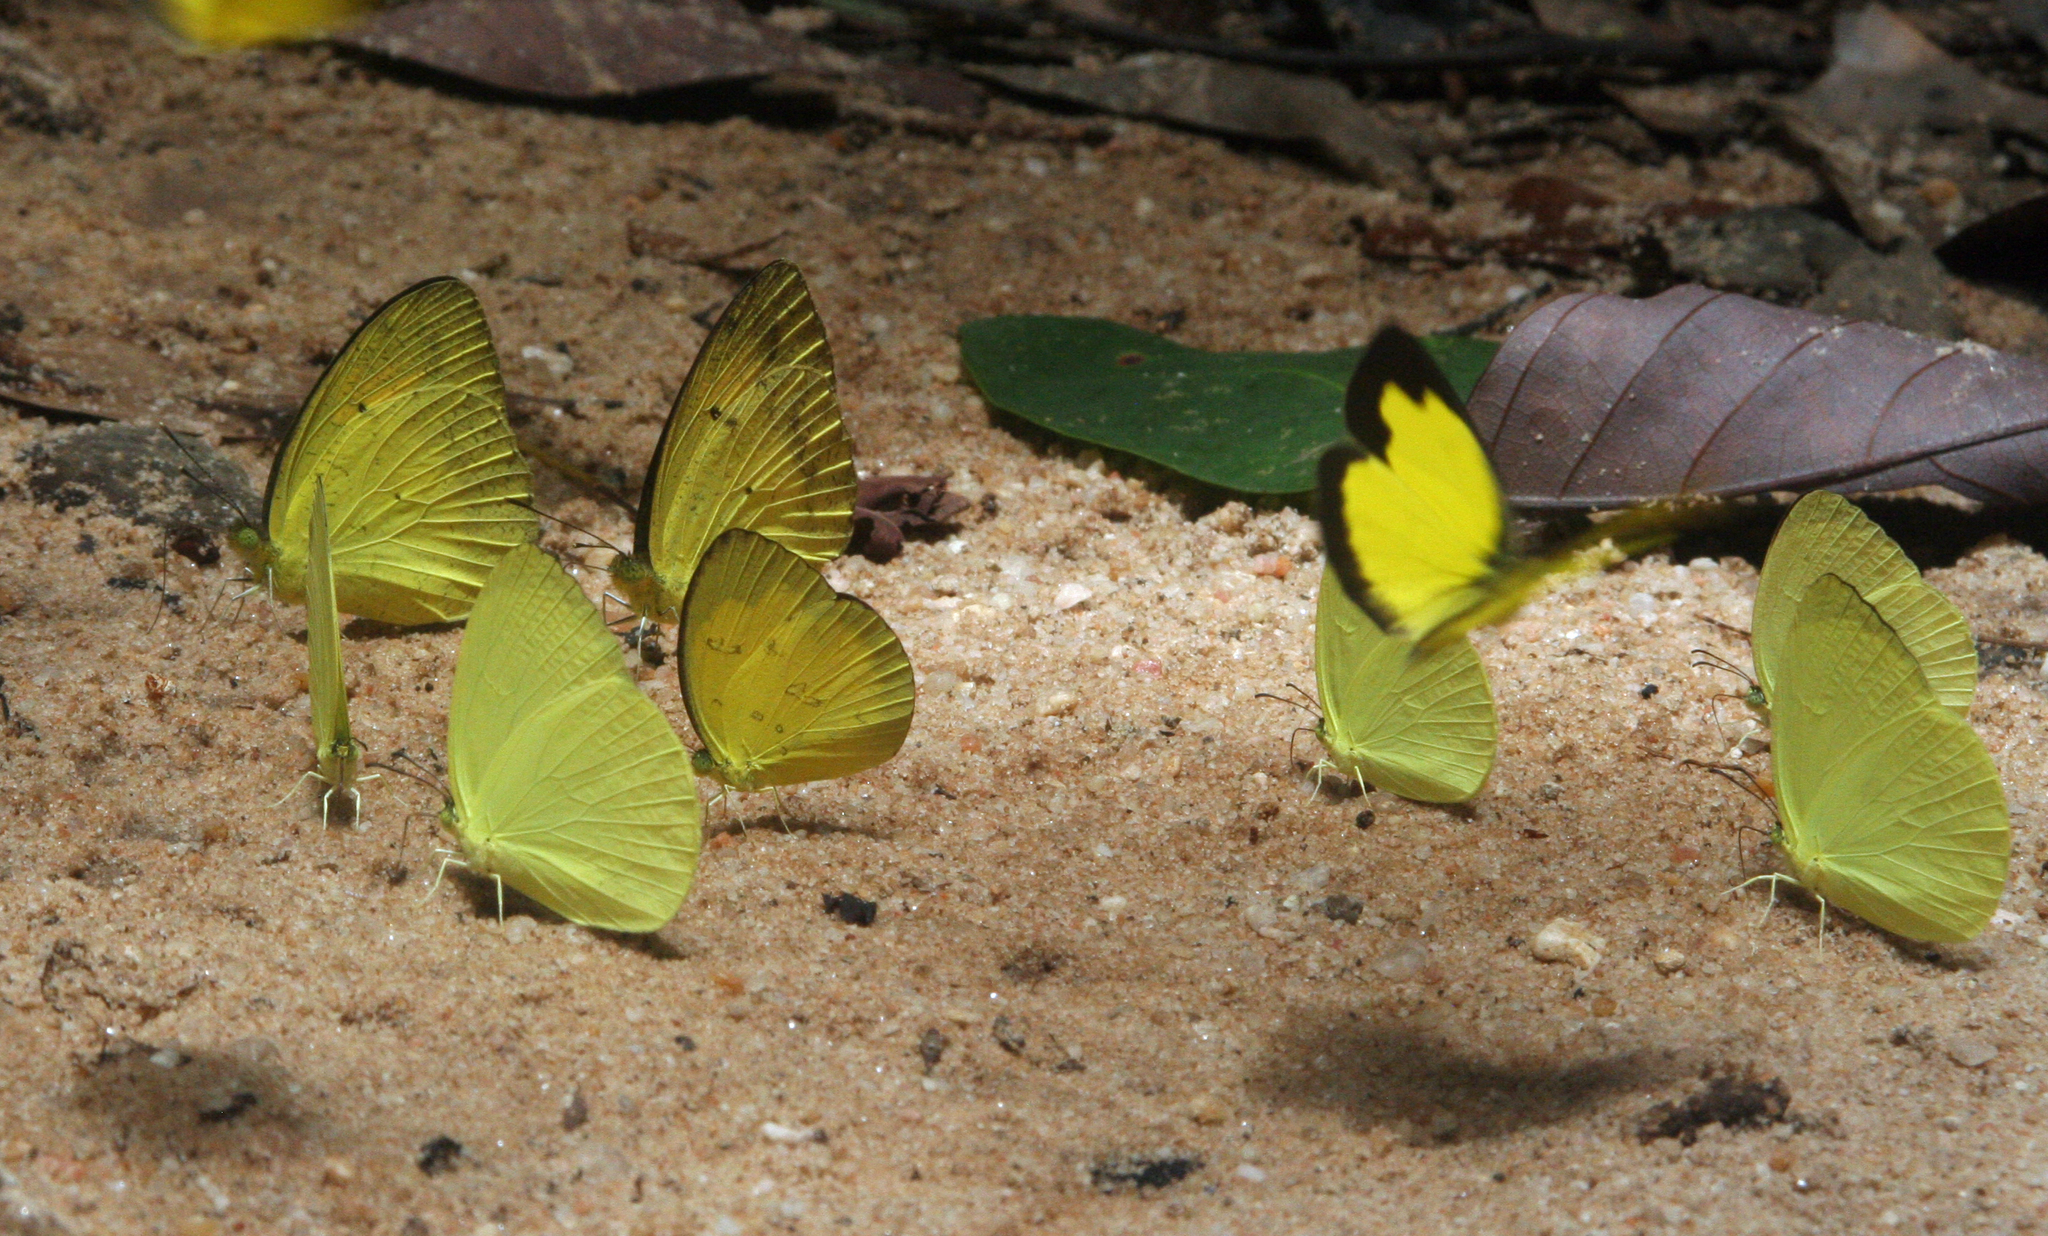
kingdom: Animalia
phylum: Arthropoda
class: Insecta
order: Lepidoptera
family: Pieridae
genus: Gandaca
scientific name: Gandaca harina
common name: Tree yellow
